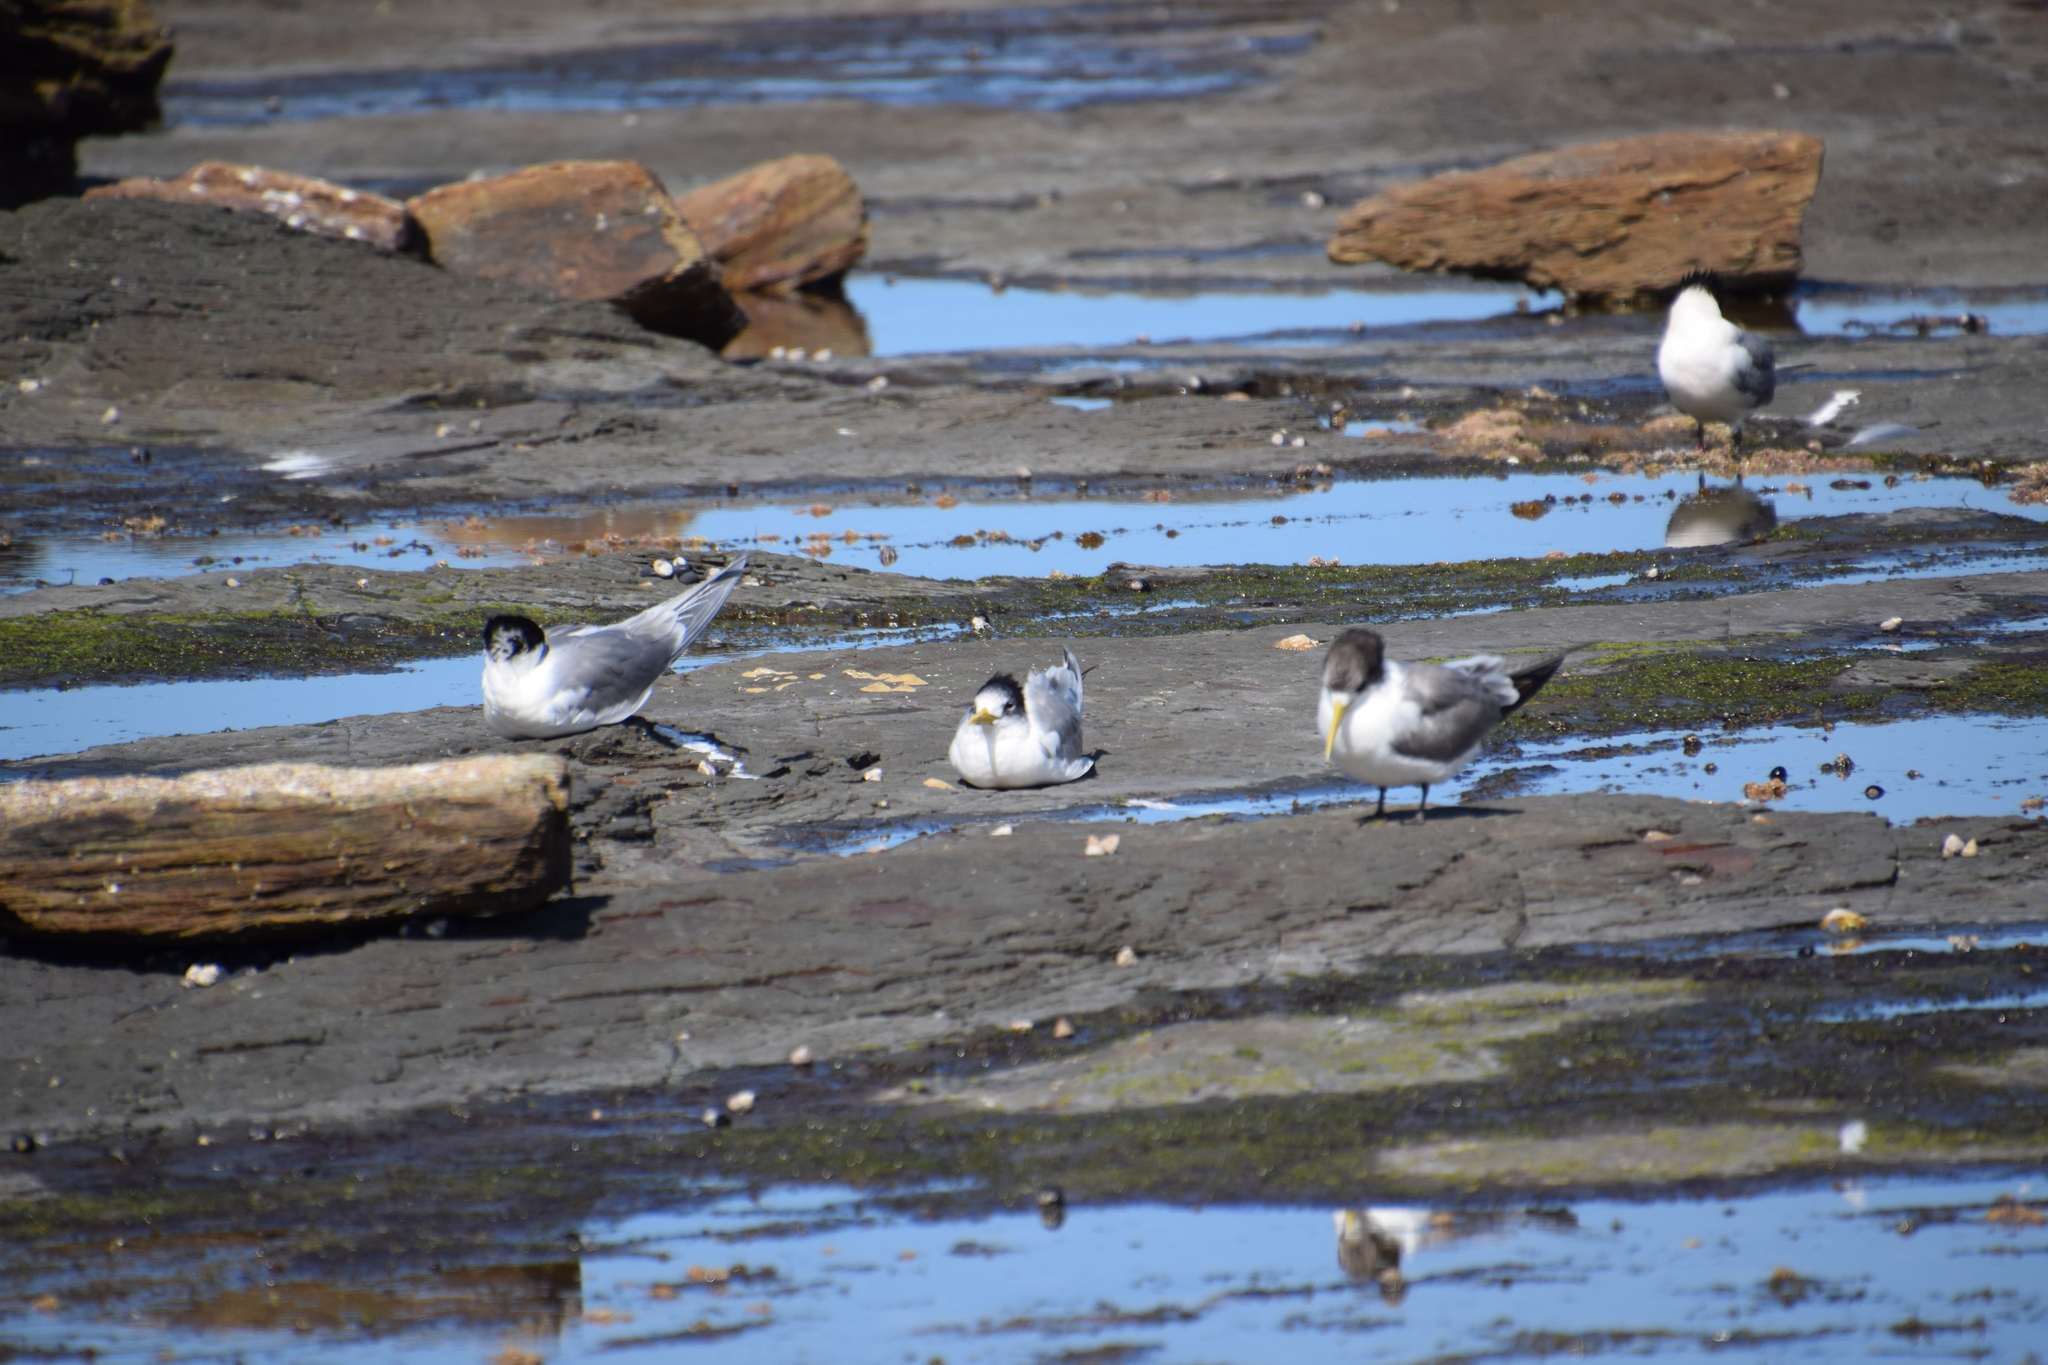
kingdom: Animalia
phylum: Chordata
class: Aves
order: Charadriiformes
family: Laridae
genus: Thalasseus
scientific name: Thalasseus bergii
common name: Greater crested tern
